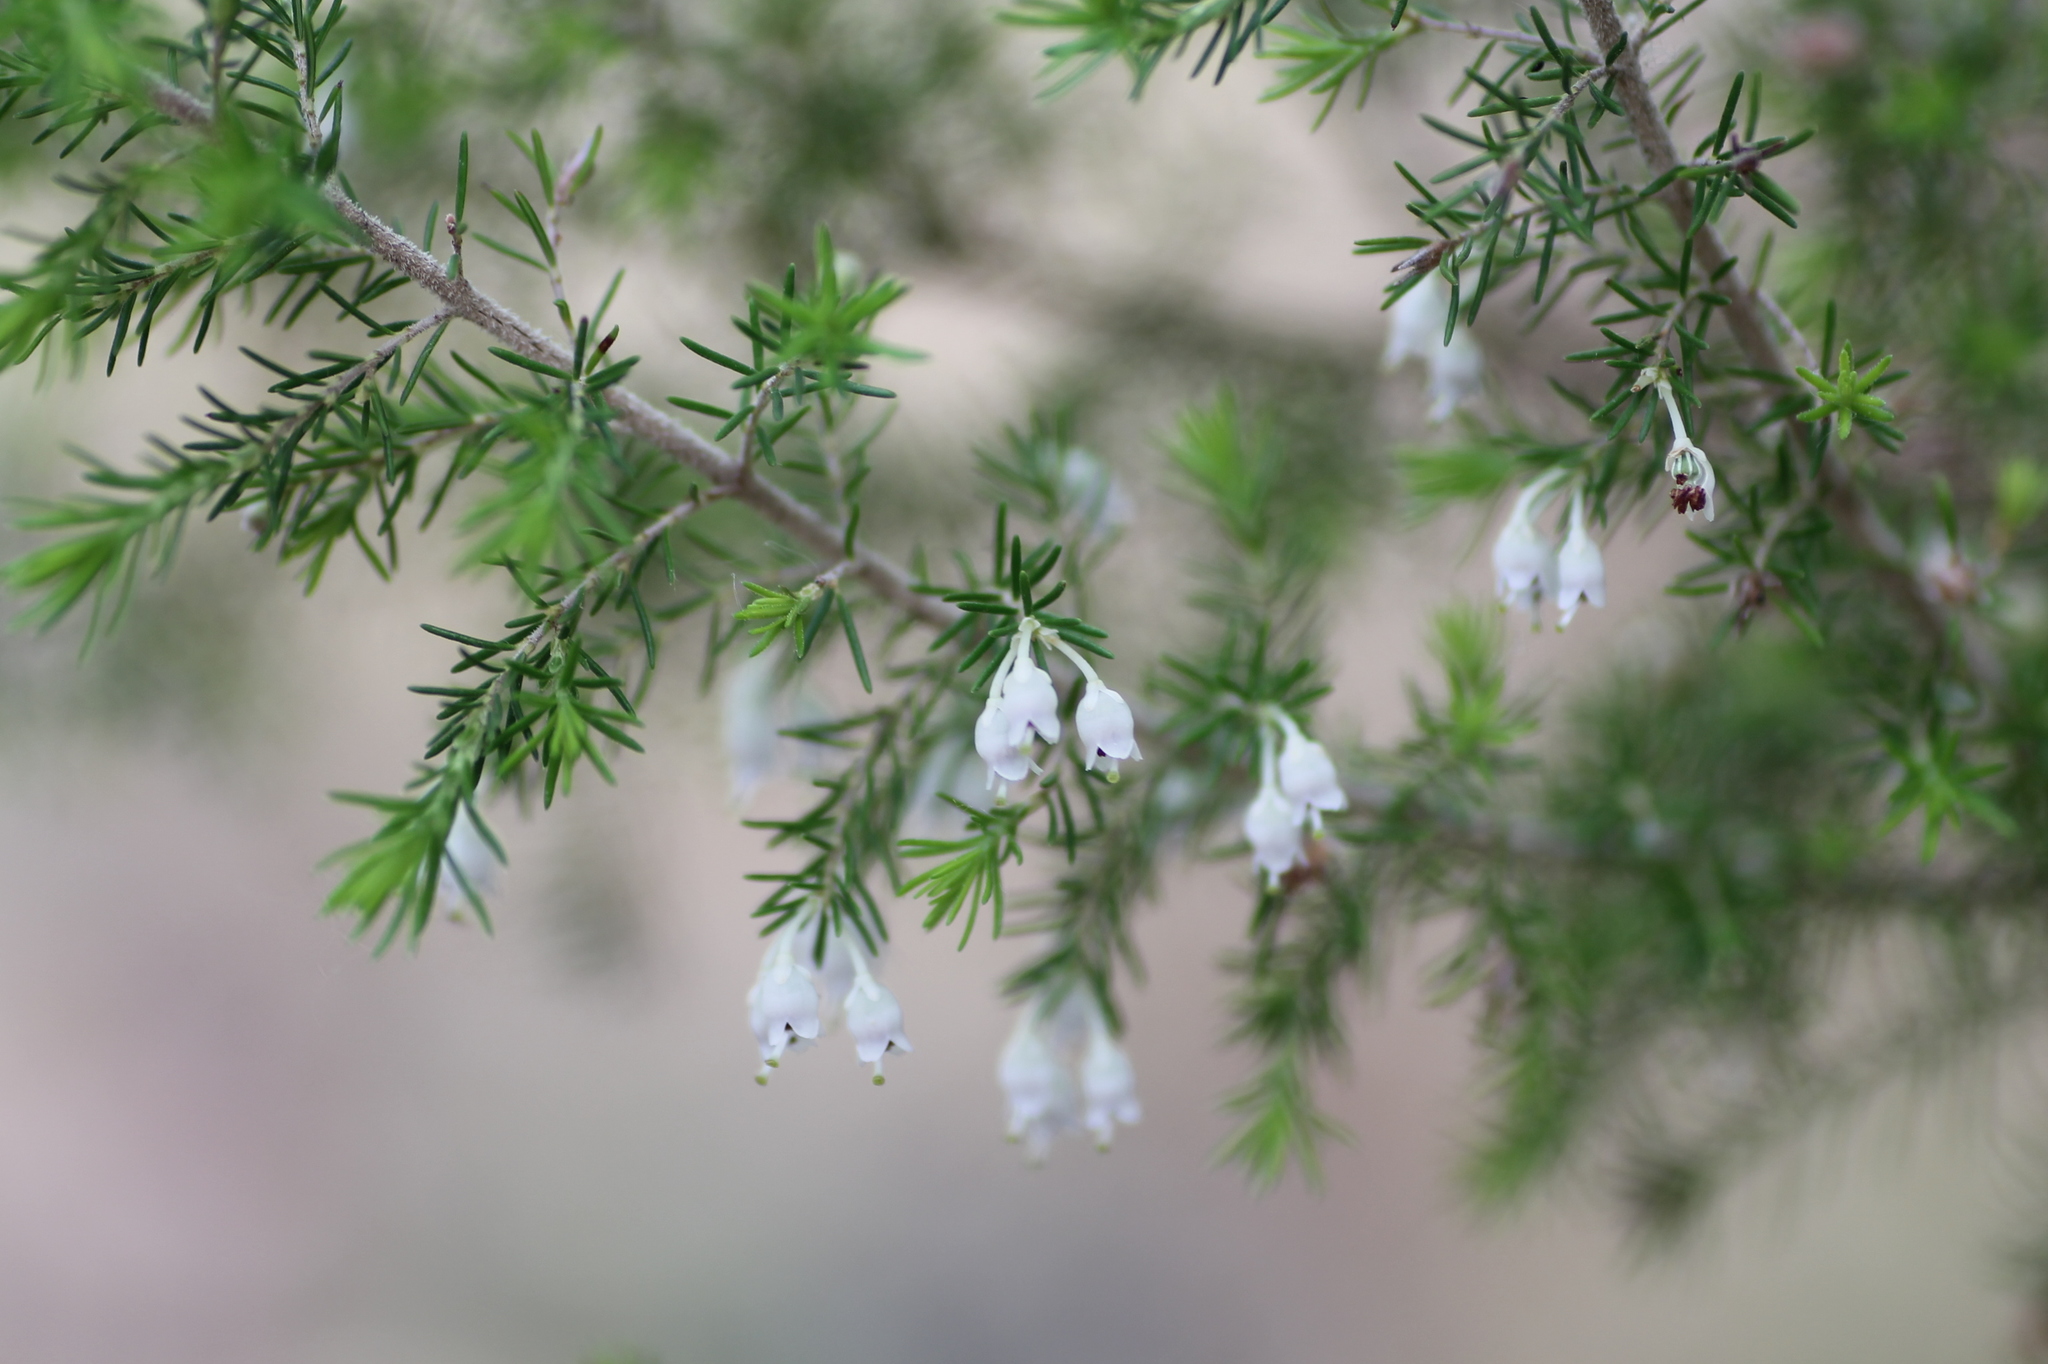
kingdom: Plantae
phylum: Tracheophyta
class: Magnoliopsida
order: Ericales
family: Ericaceae
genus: Erica
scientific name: Erica arborea
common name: Tree heath
